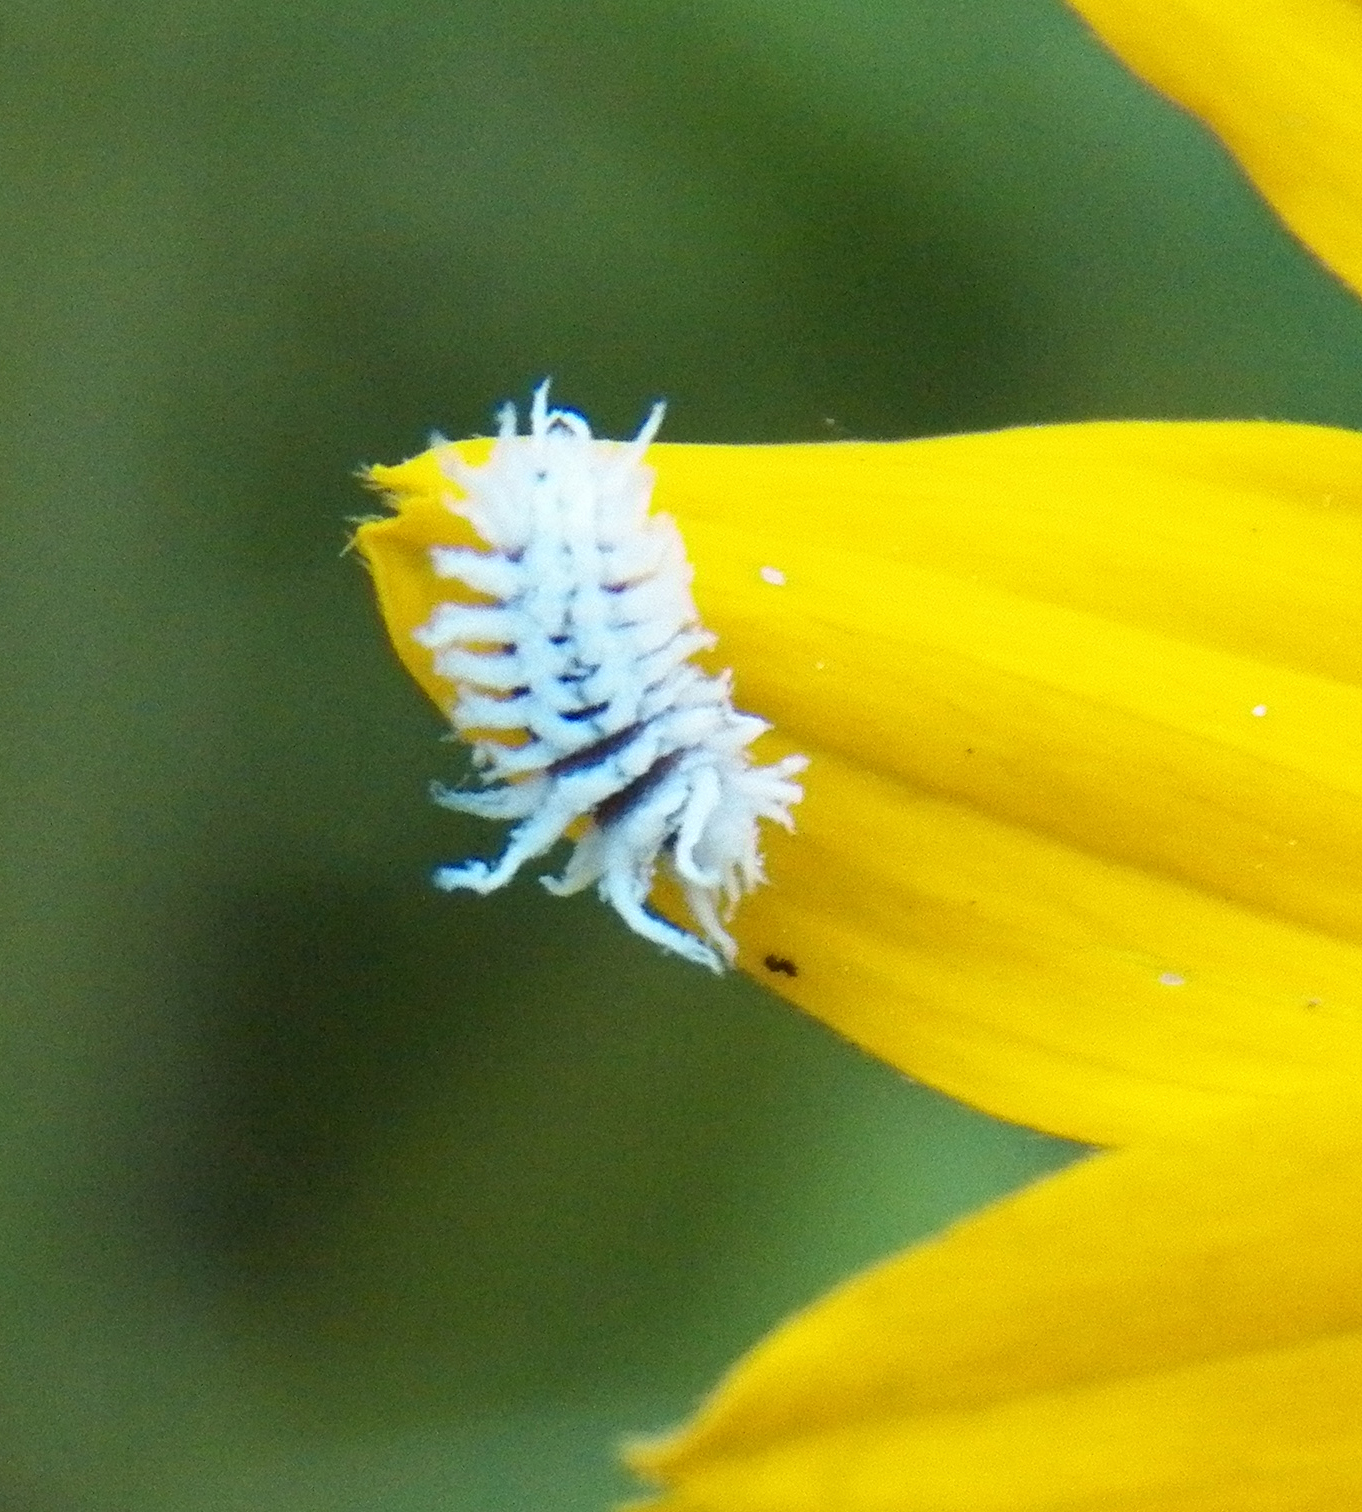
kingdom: Animalia
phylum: Arthropoda
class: Insecta
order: Coleoptera
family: Coccinellidae
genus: Cryptolaemus
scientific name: Cryptolaemus montrouzieri
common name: Mealybug destroyer
